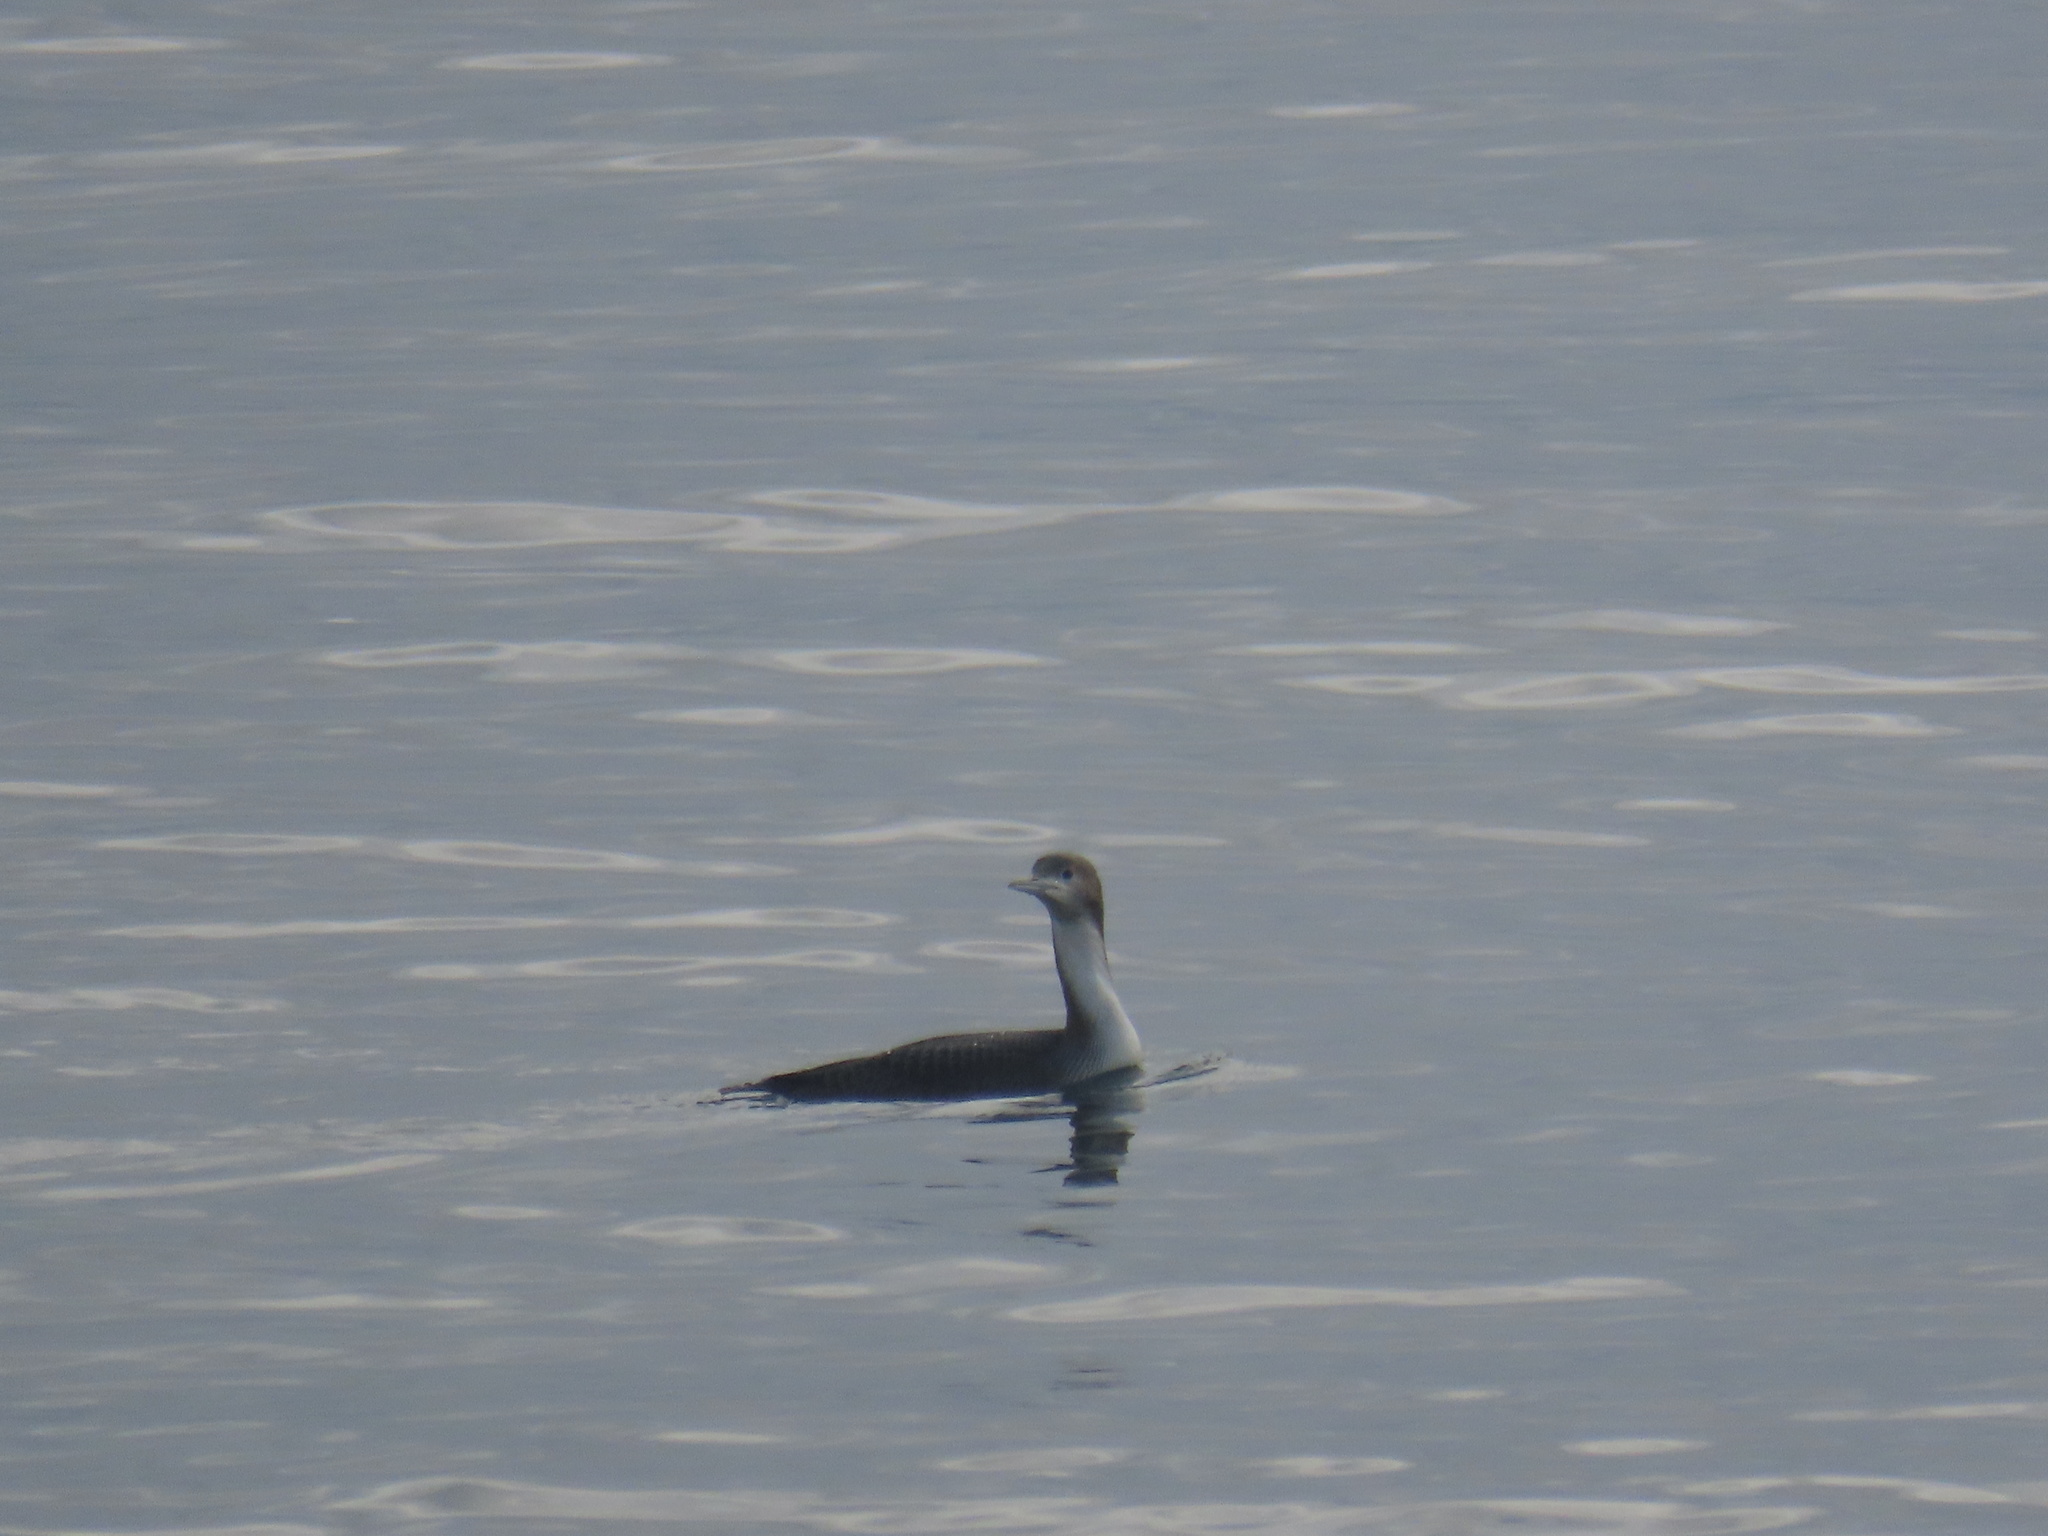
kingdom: Animalia
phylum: Chordata
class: Aves
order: Gaviiformes
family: Gaviidae
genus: Gavia
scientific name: Gavia pacifica
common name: Pacific loon
